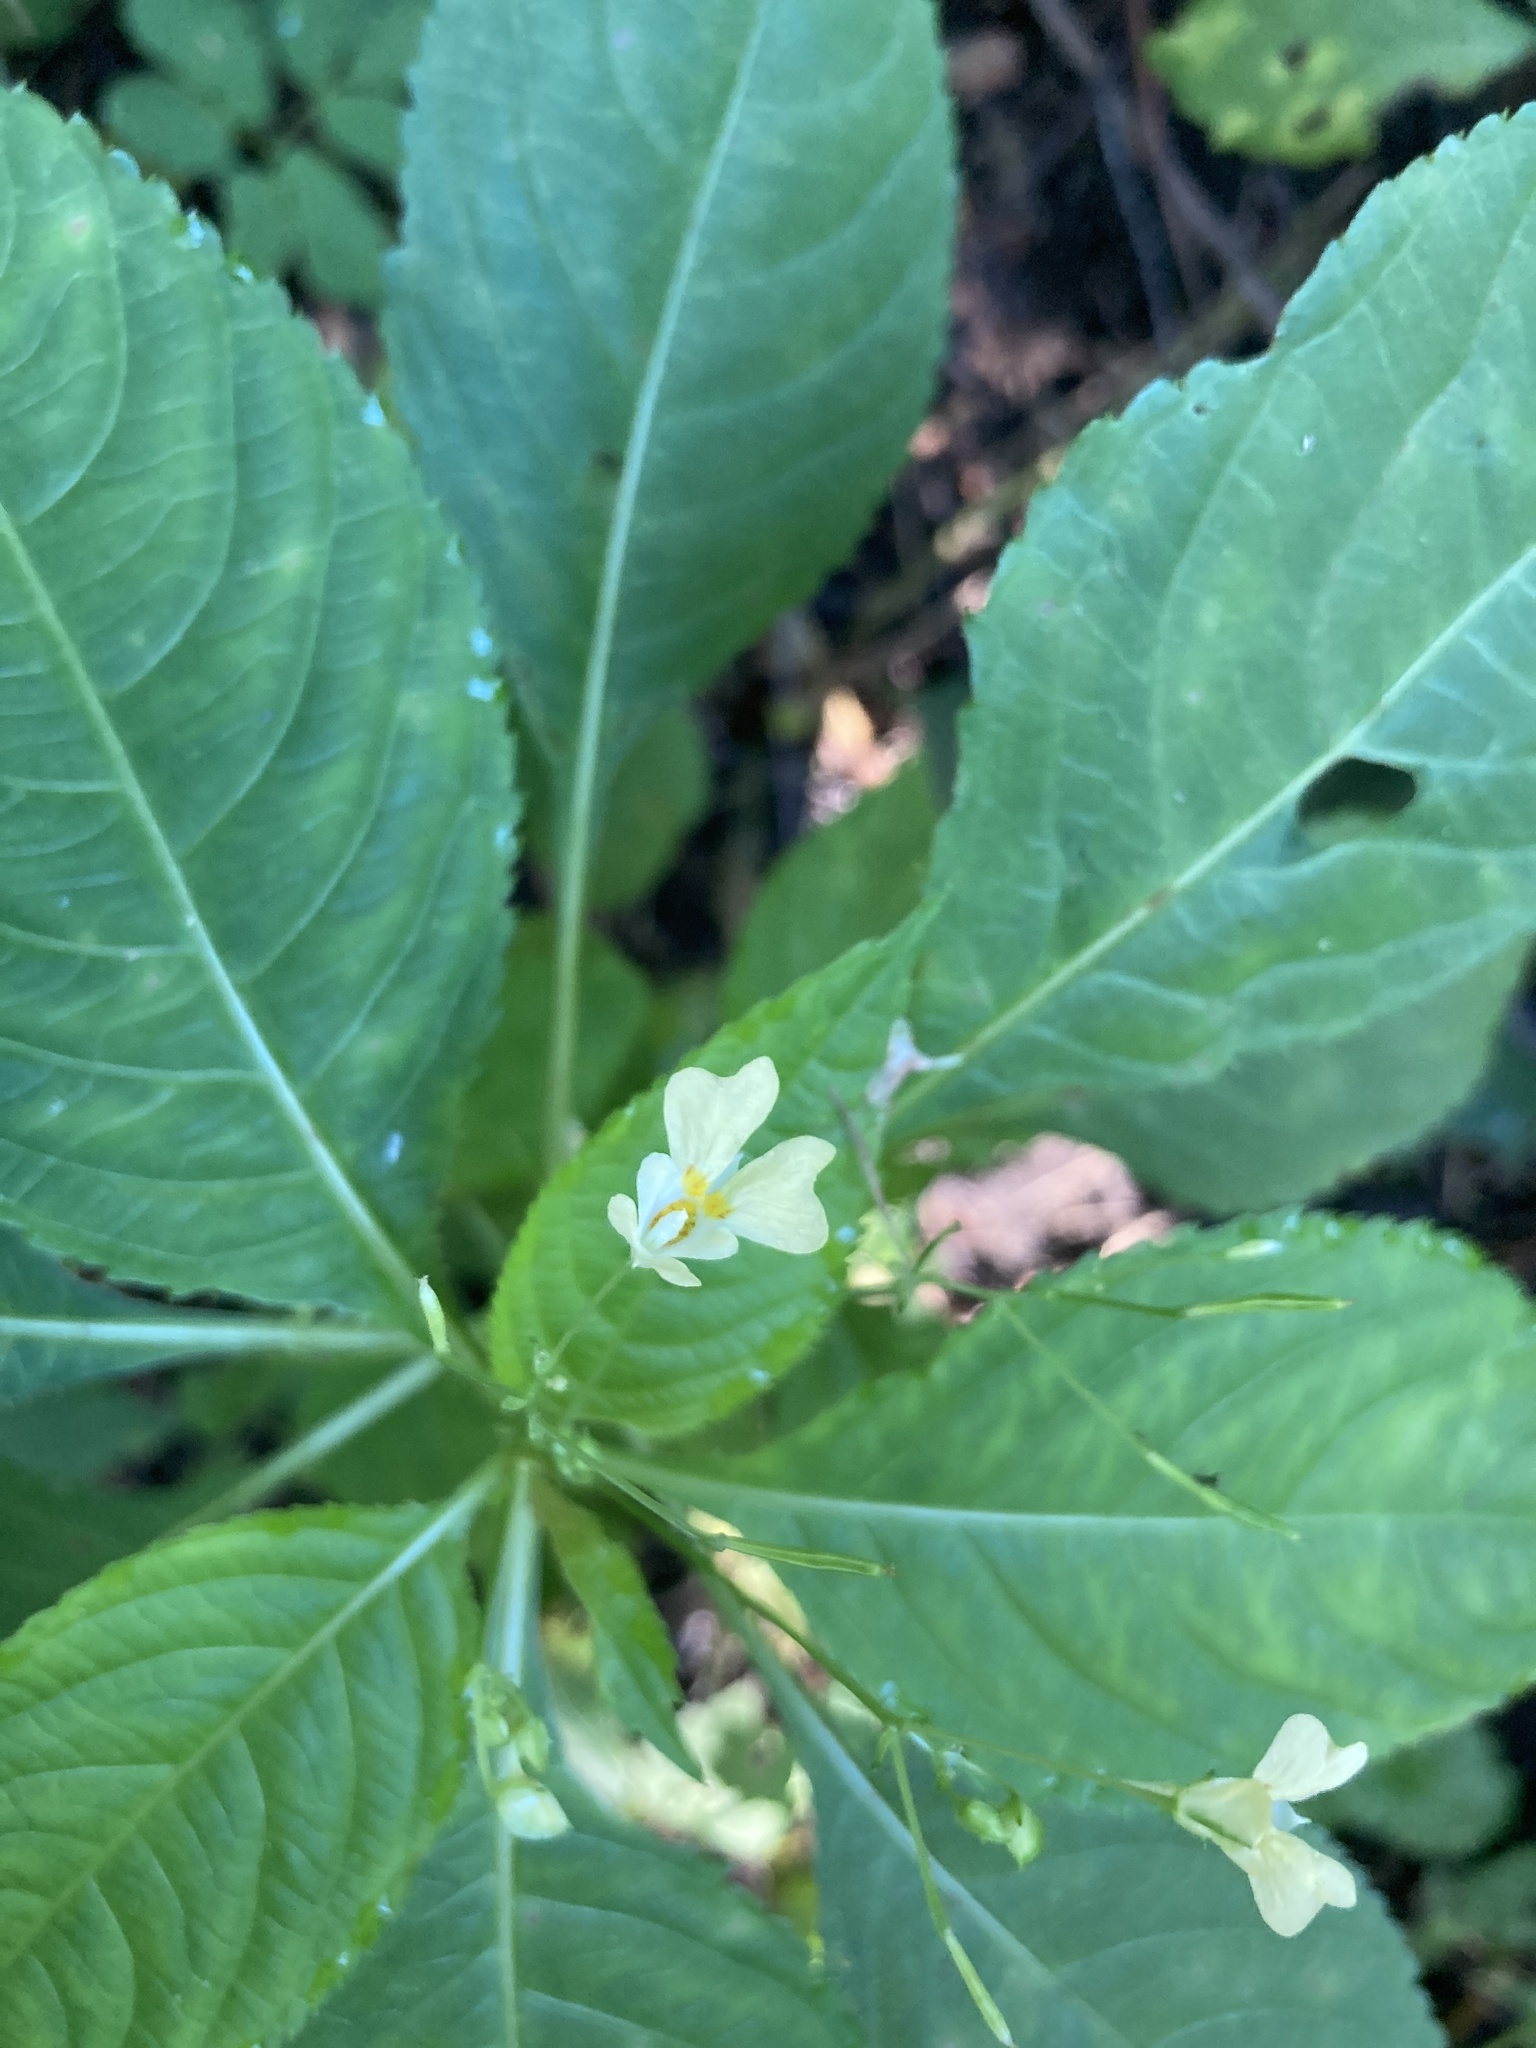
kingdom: Plantae
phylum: Tracheophyta
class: Magnoliopsida
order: Ericales
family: Balsaminaceae
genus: Impatiens
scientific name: Impatiens parviflora
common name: Small balsam
